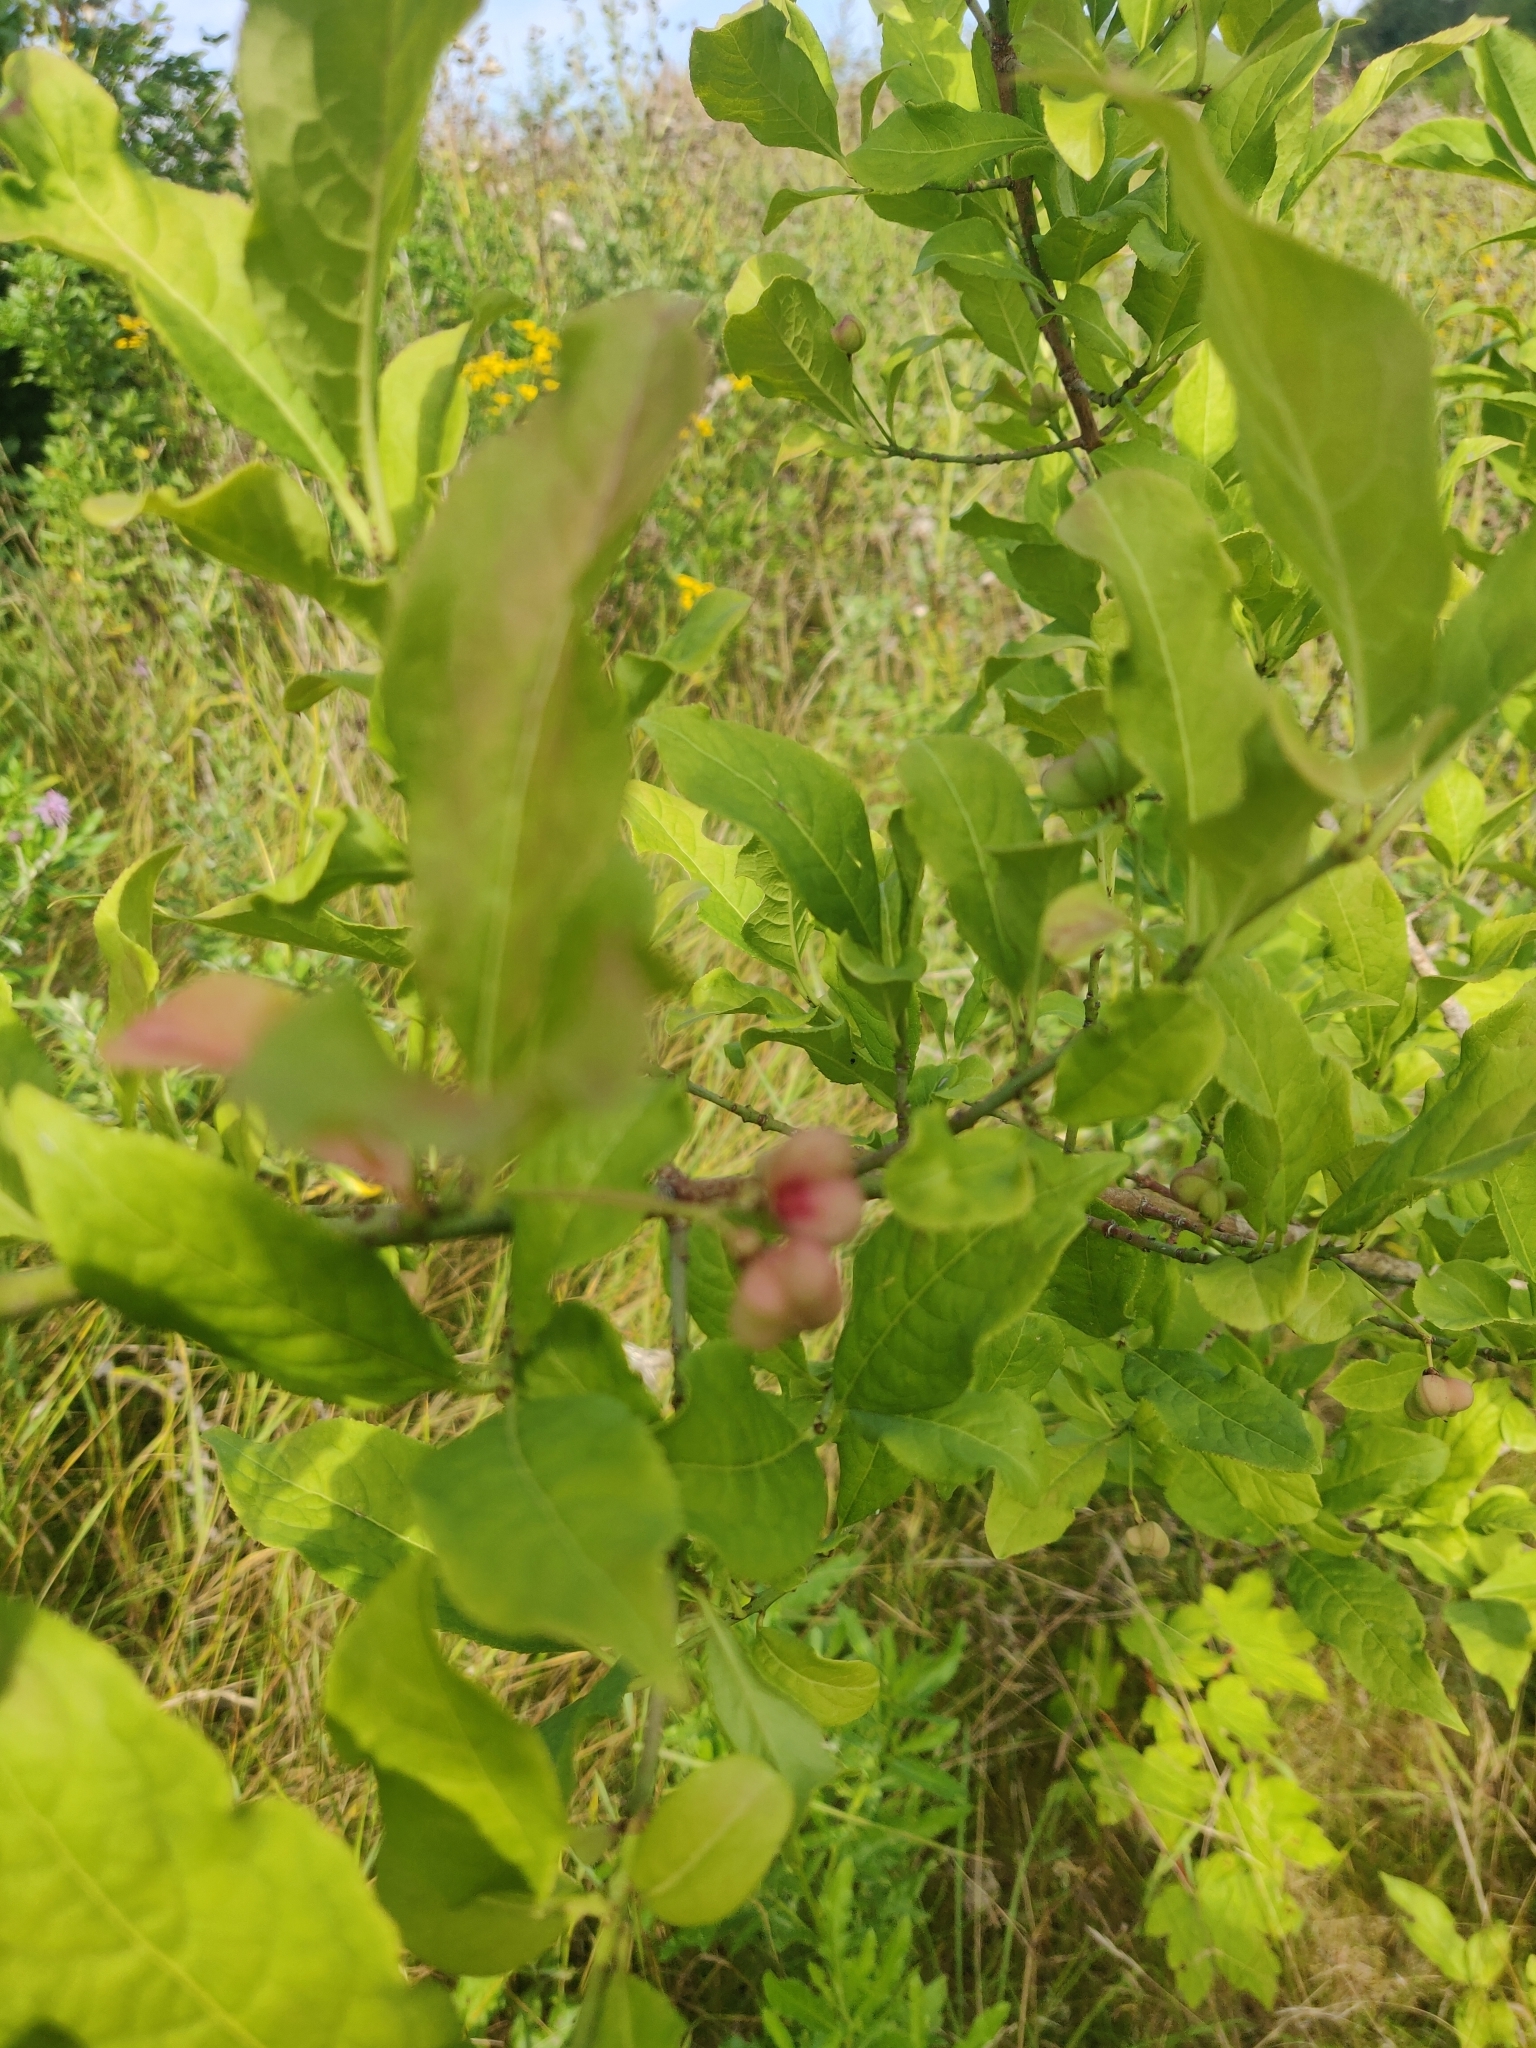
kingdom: Plantae
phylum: Tracheophyta
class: Magnoliopsida
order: Celastrales
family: Celastraceae
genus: Euonymus
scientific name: Euonymus europaeus
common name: Spindle
